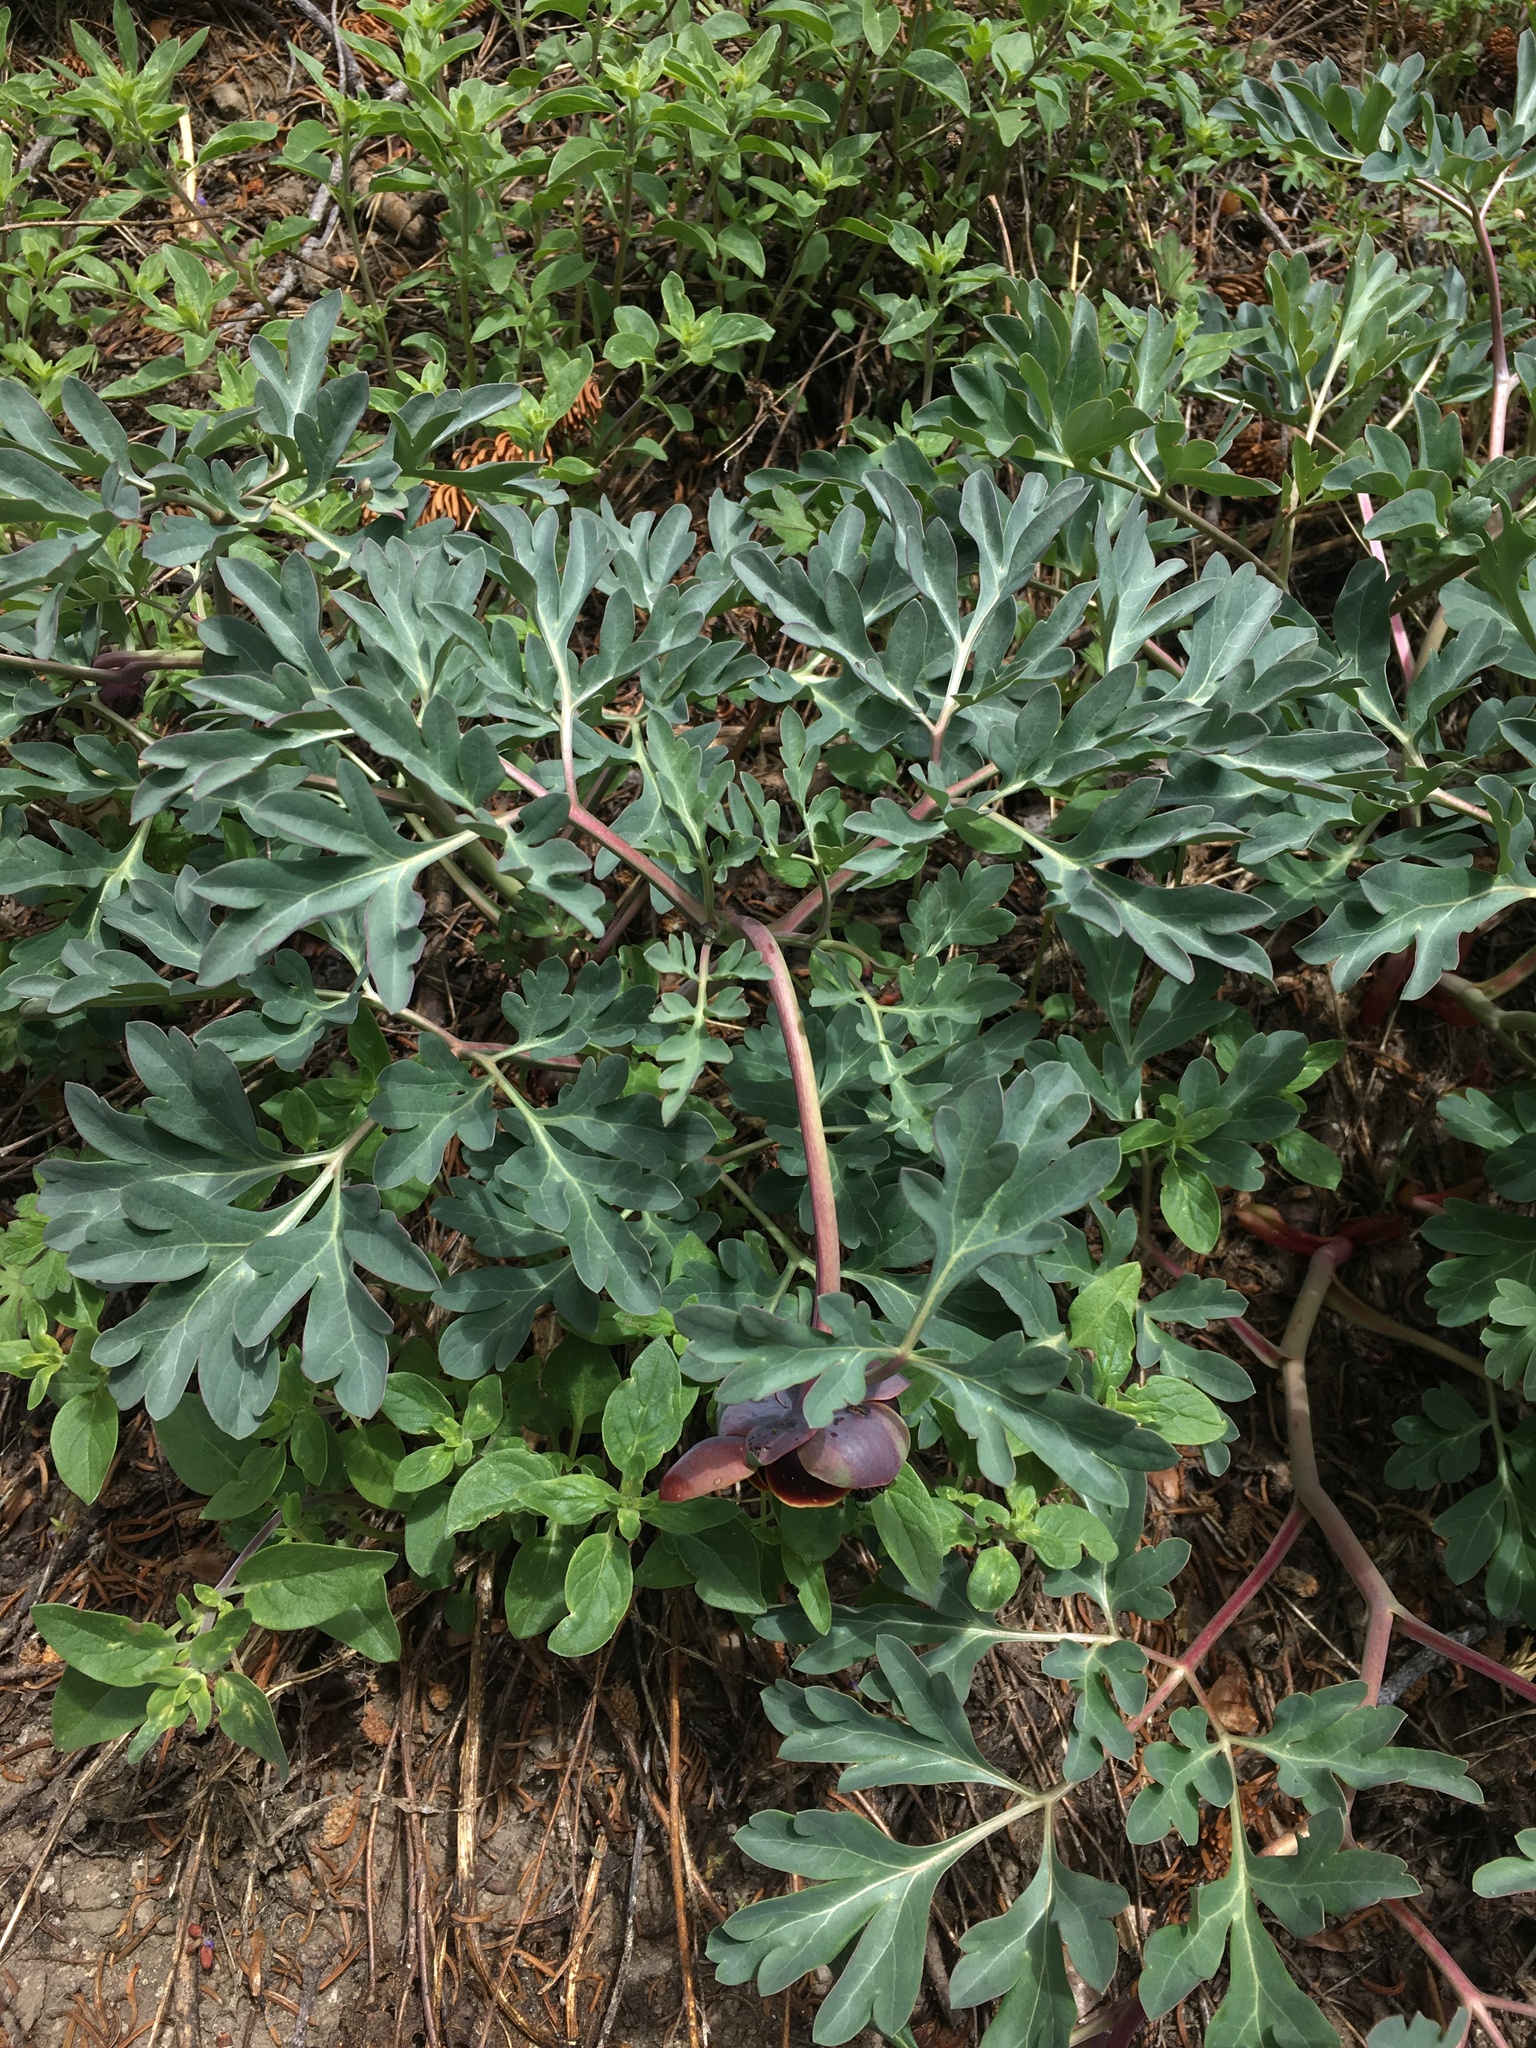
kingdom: Plantae
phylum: Tracheophyta
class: Magnoliopsida
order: Saxifragales
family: Paeoniaceae
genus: Paeonia
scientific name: Paeonia brownii
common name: Brown's peony
